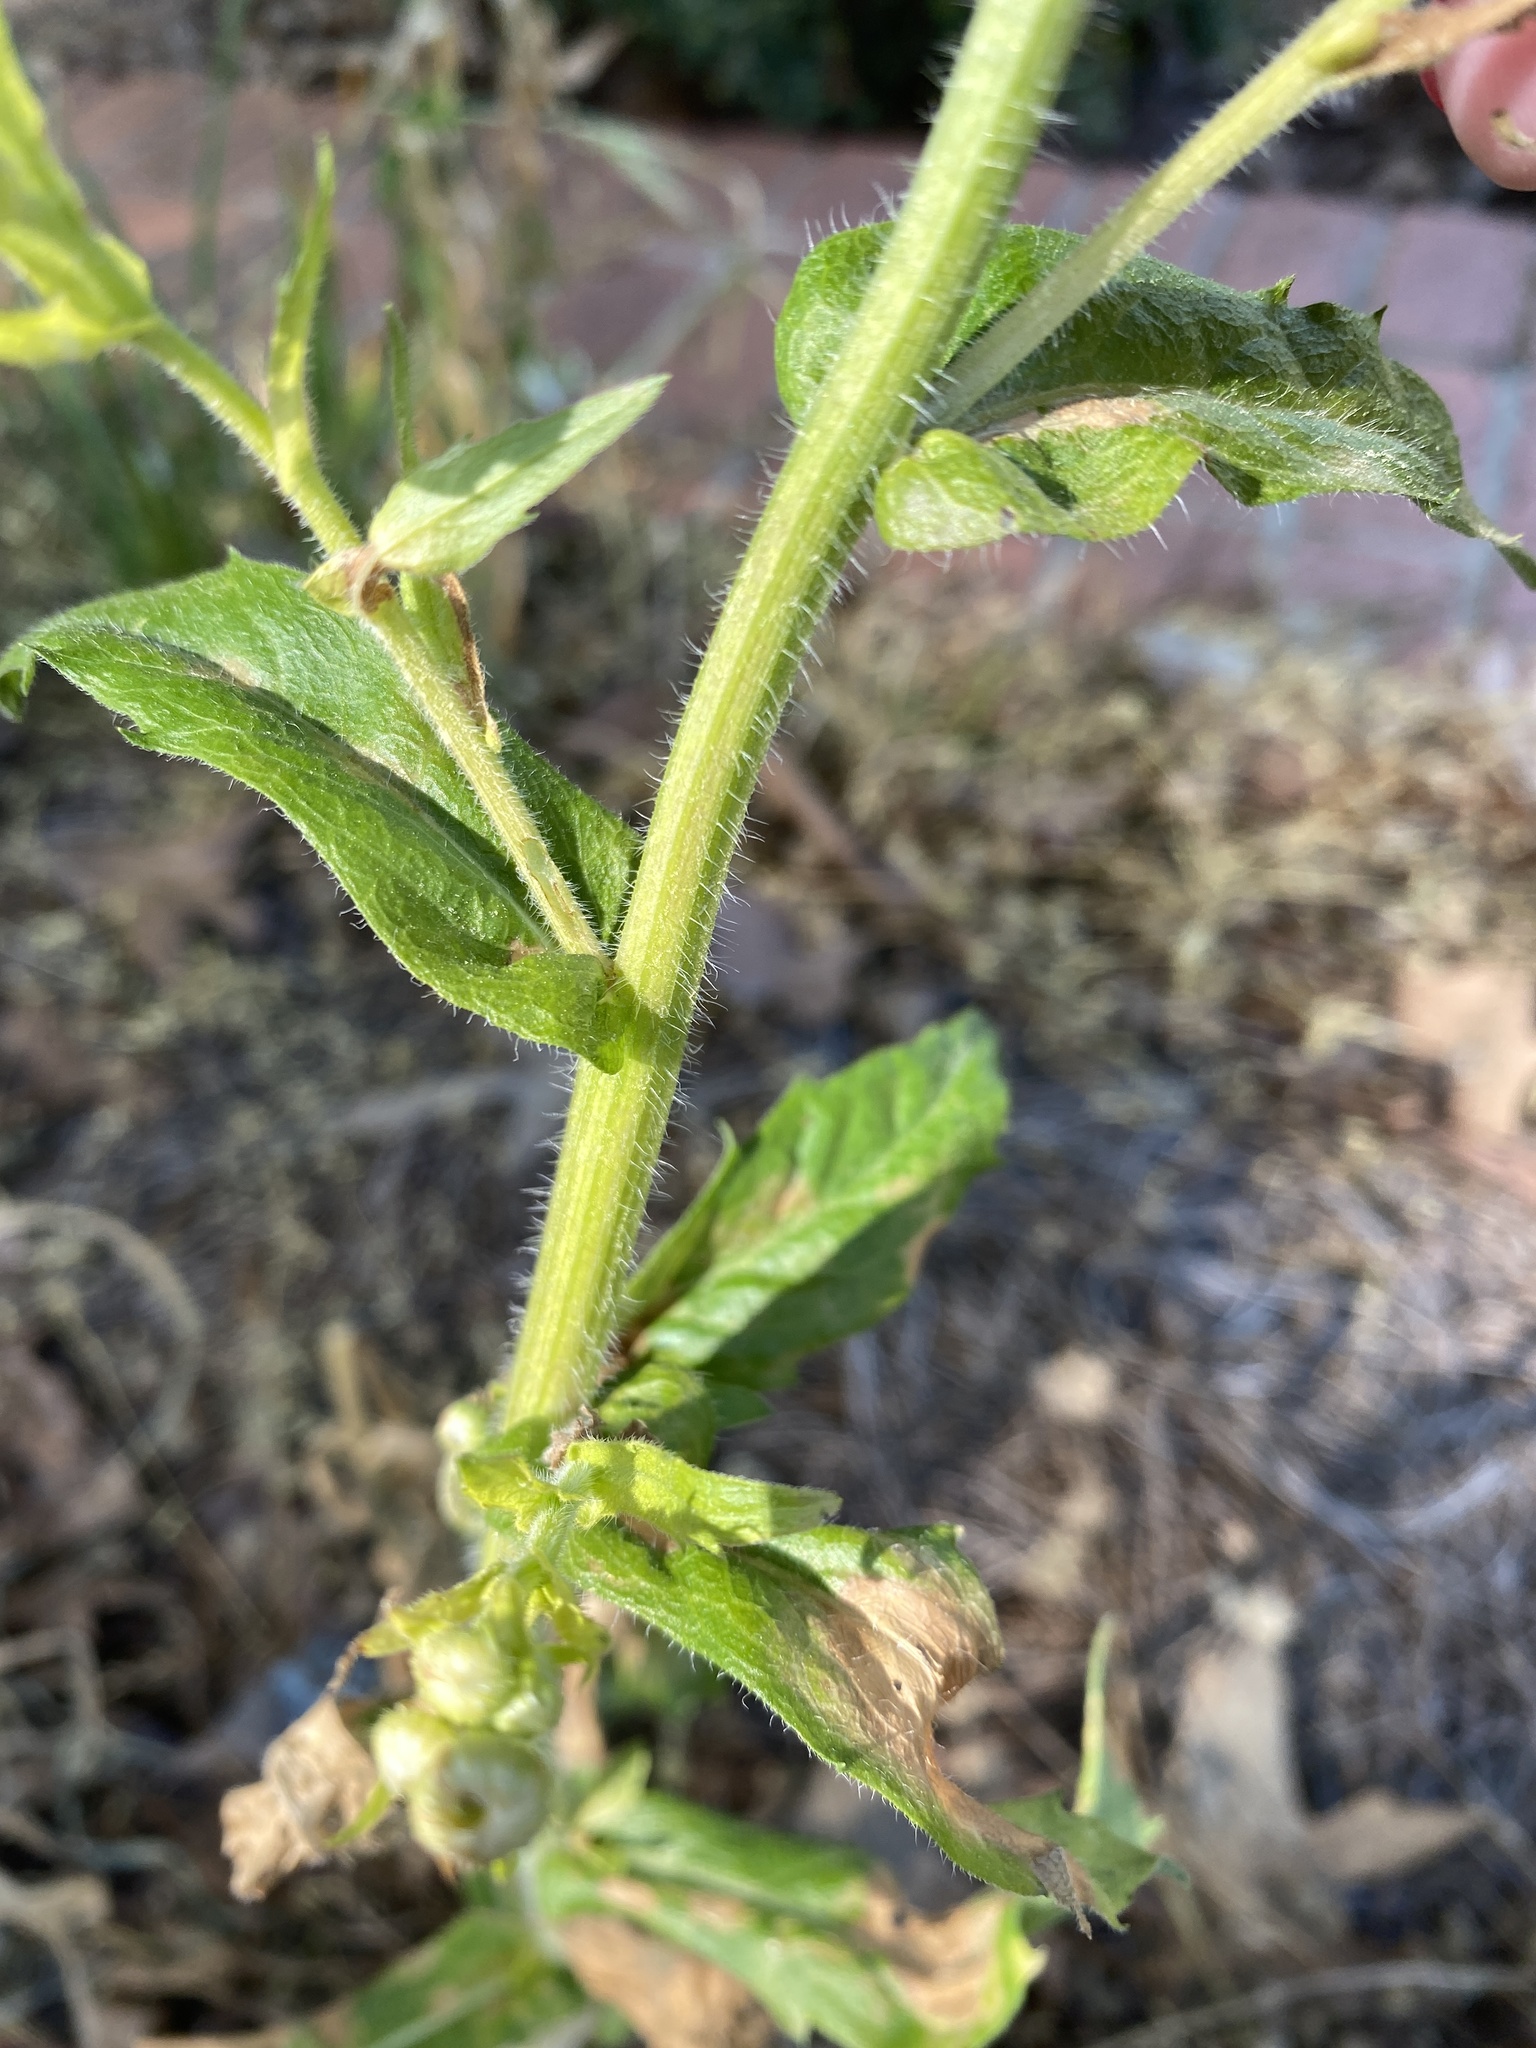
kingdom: Plantae
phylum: Tracheophyta
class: Magnoliopsida
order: Asterales
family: Asteraceae
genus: Erigeron
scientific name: Erigeron philadelphicus
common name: Robin's-plantain
